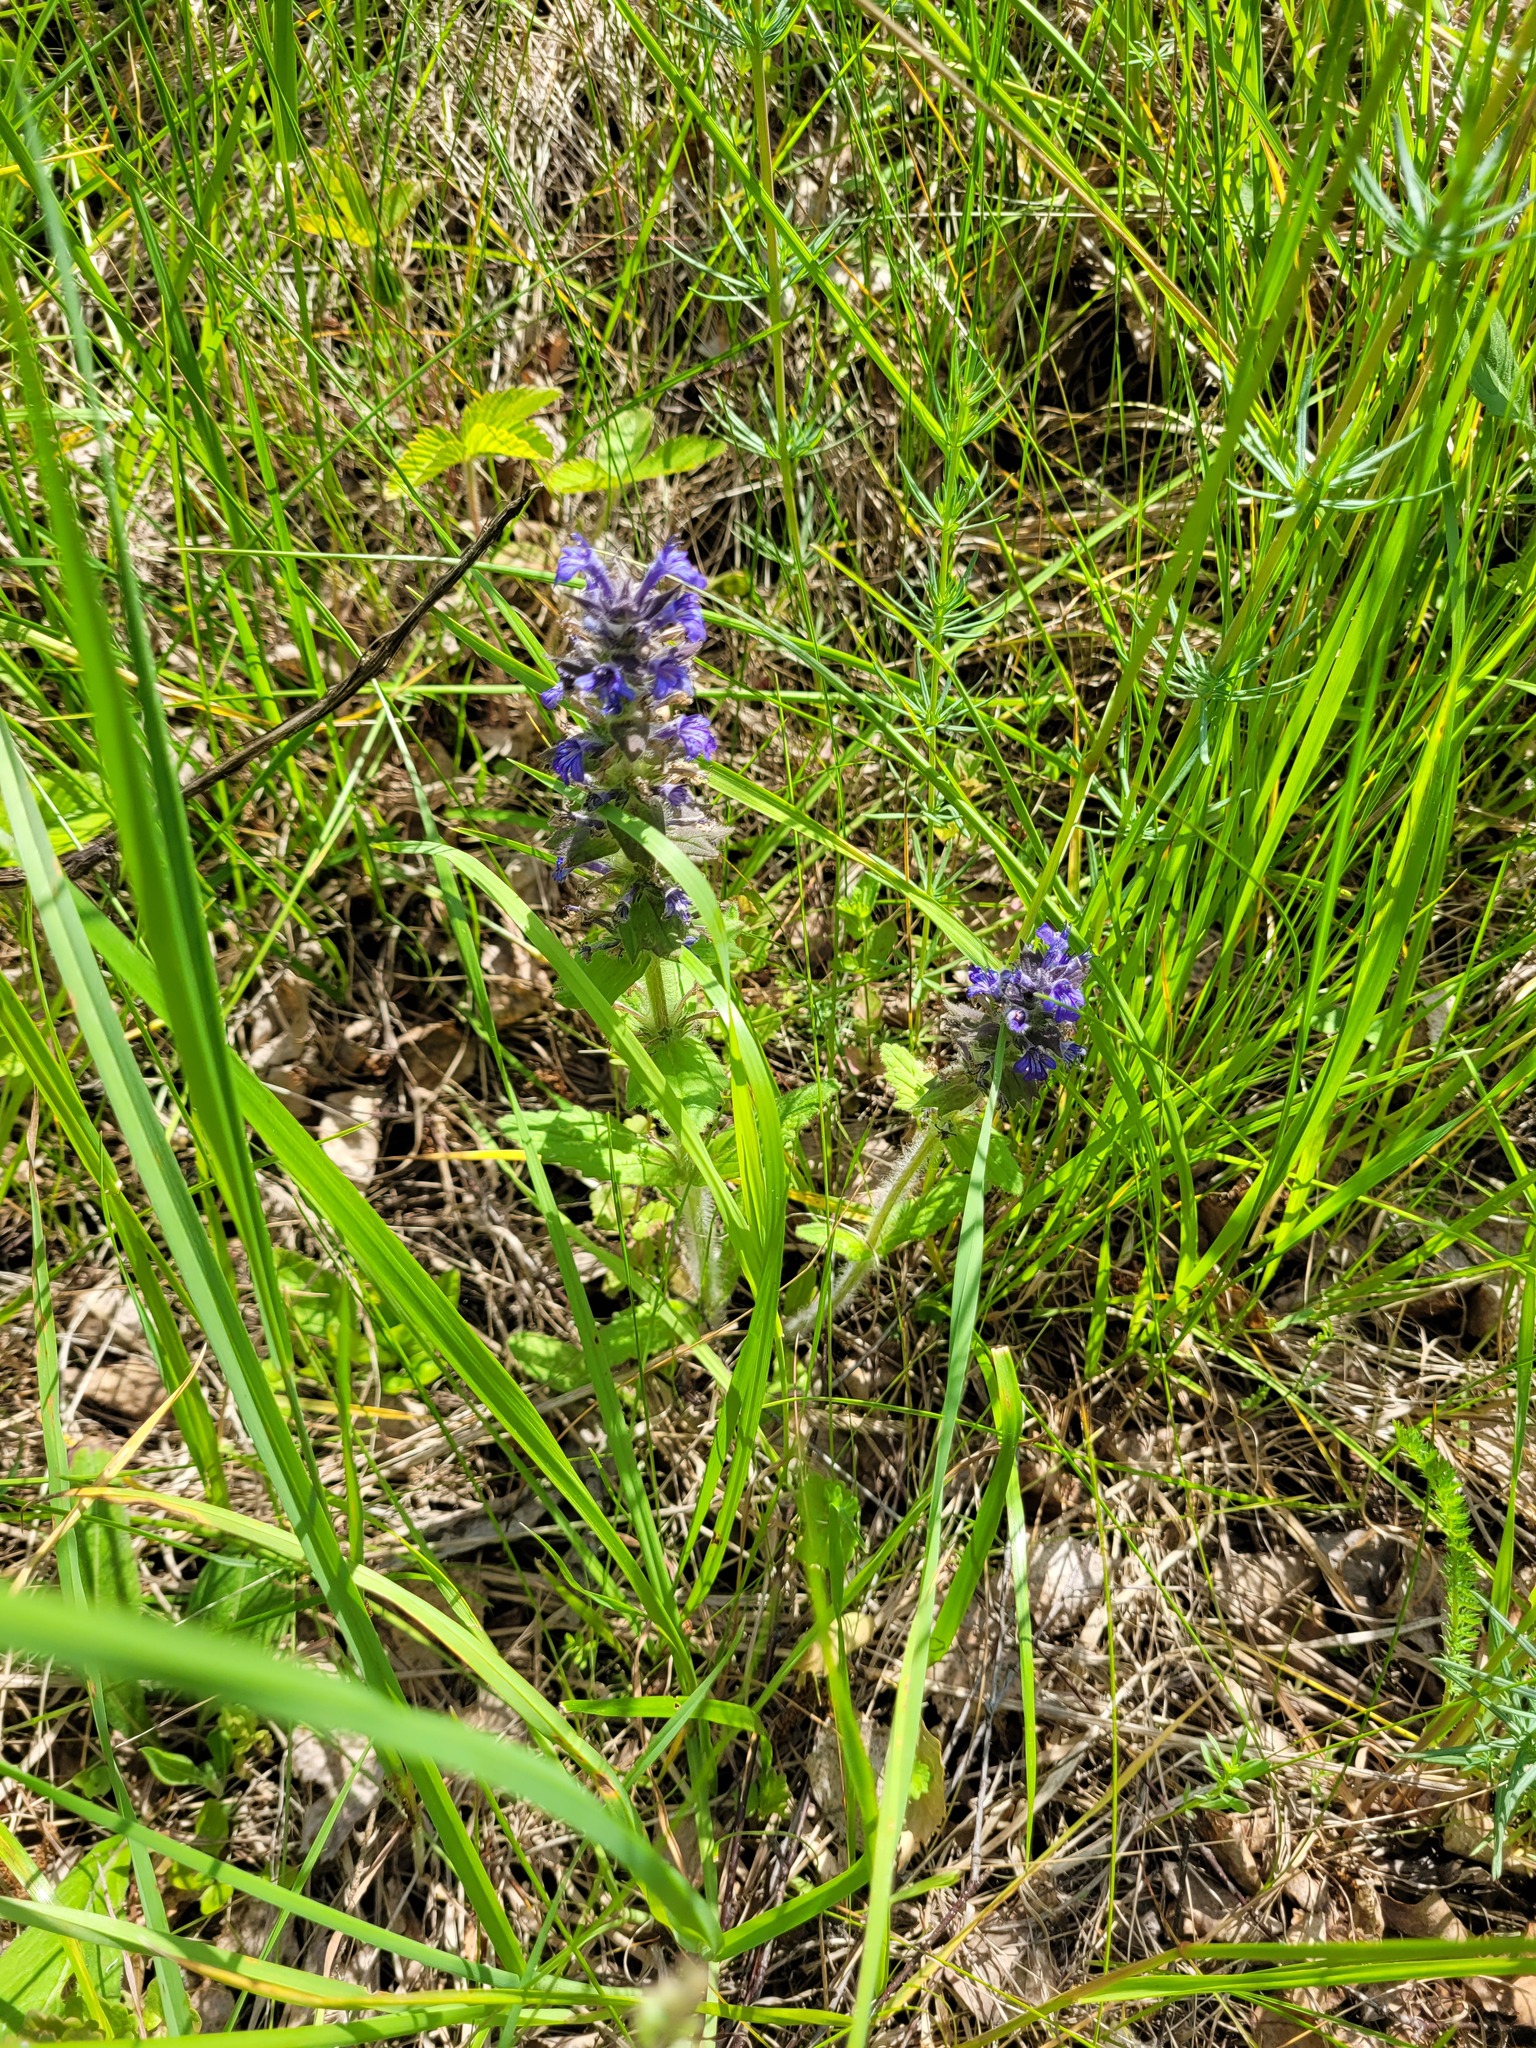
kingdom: Plantae
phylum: Tracheophyta
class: Magnoliopsida
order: Lamiales
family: Lamiaceae
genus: Ajuga
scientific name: Ajuga genevensis
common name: Blue bugle
